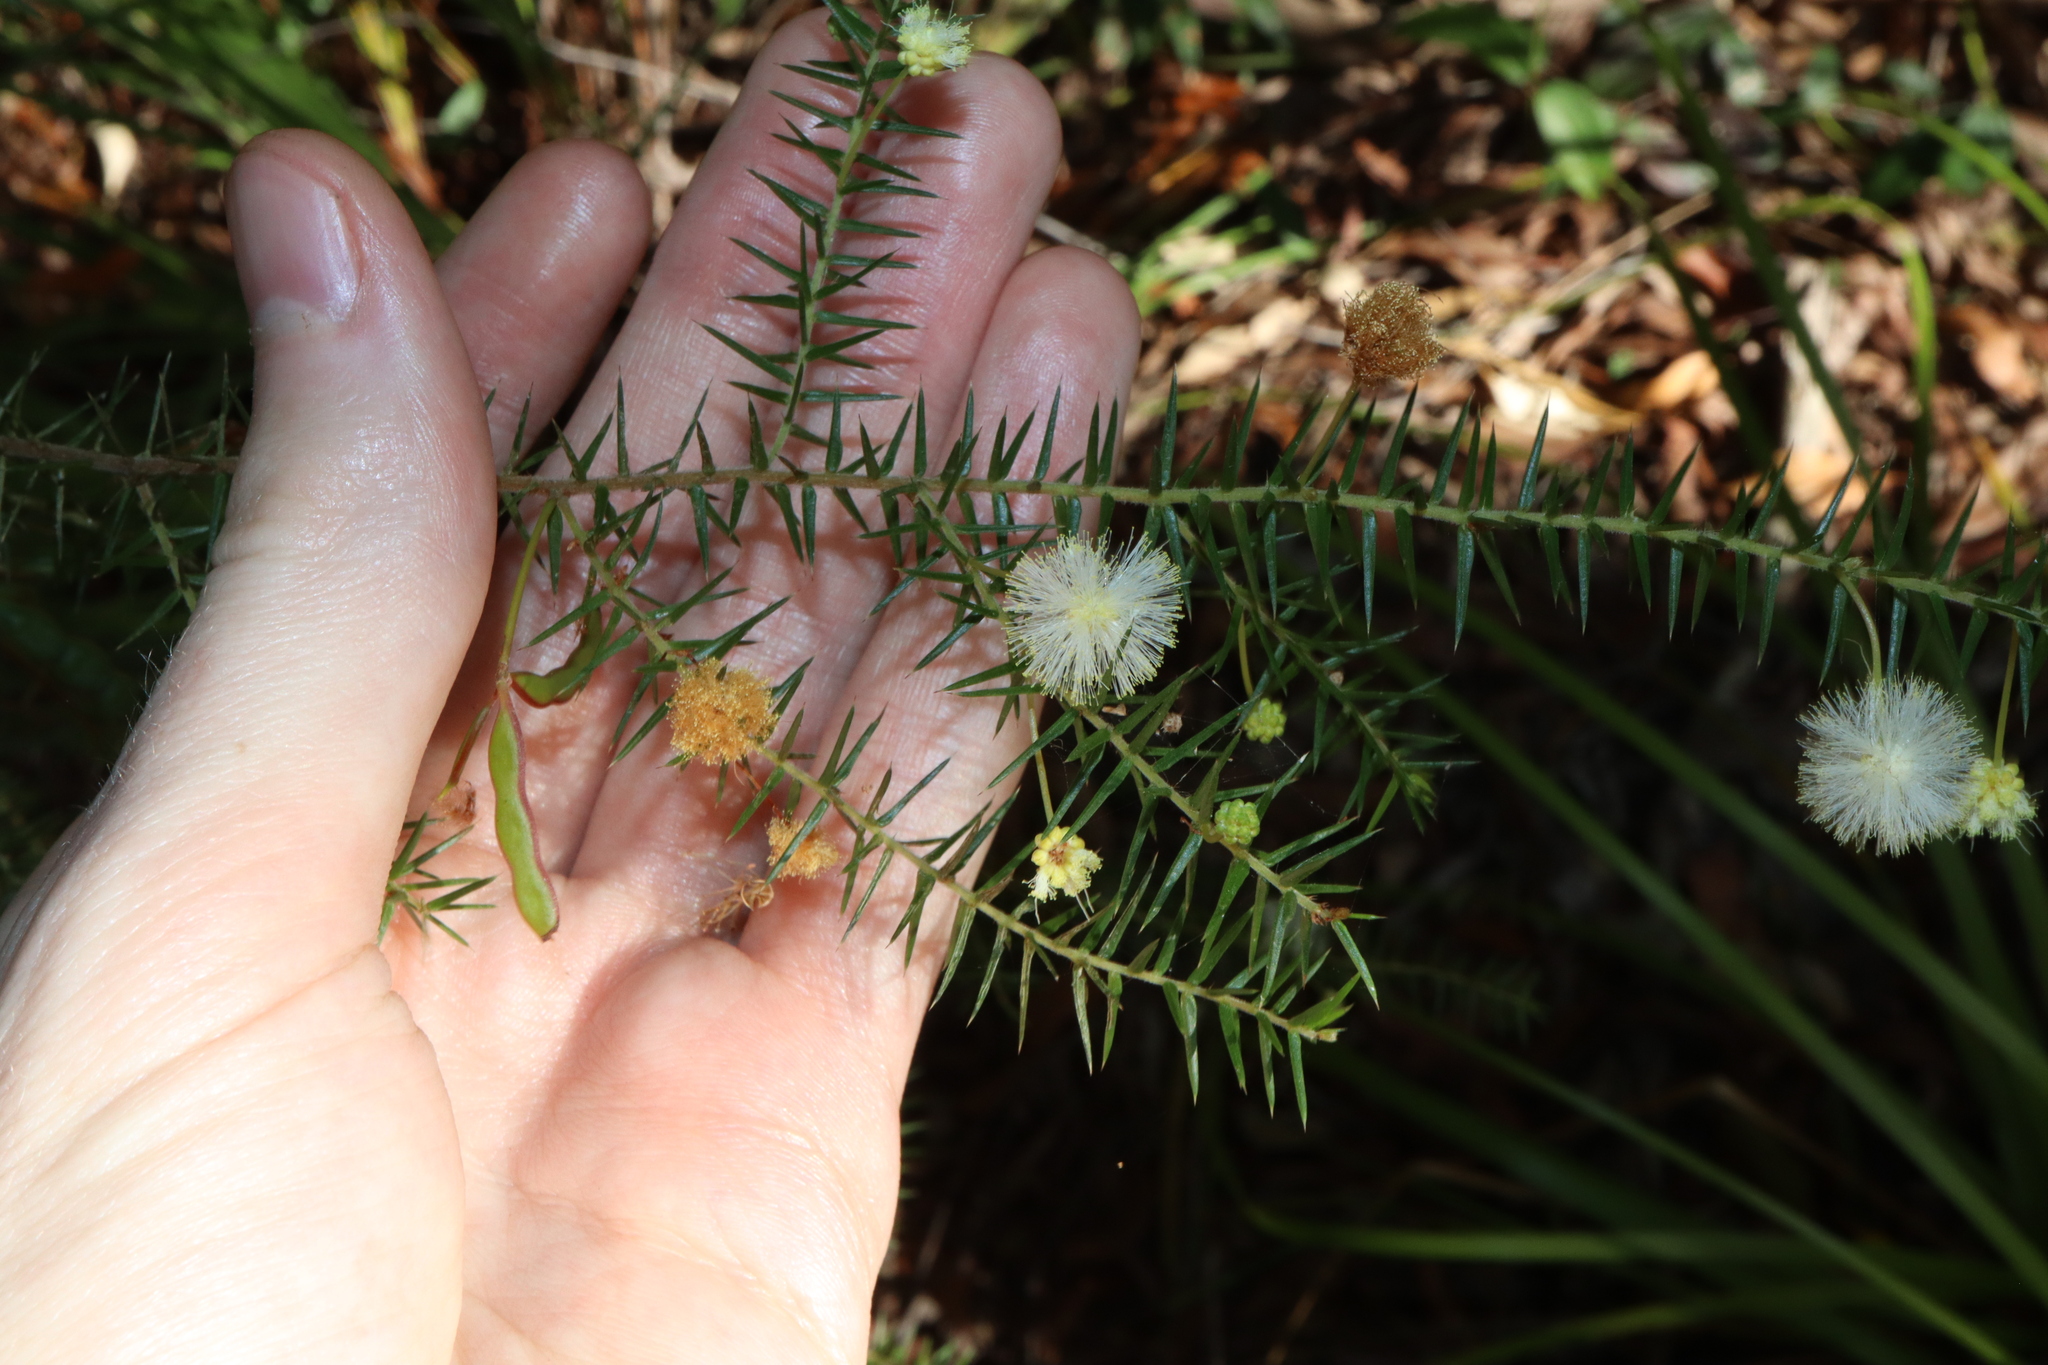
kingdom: Plantae
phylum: Tracheophyta
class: Magnoliopsida
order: Fabales
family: Fabaceae
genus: Acacia
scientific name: Acacia ulicifolia
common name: Juniper wattle
